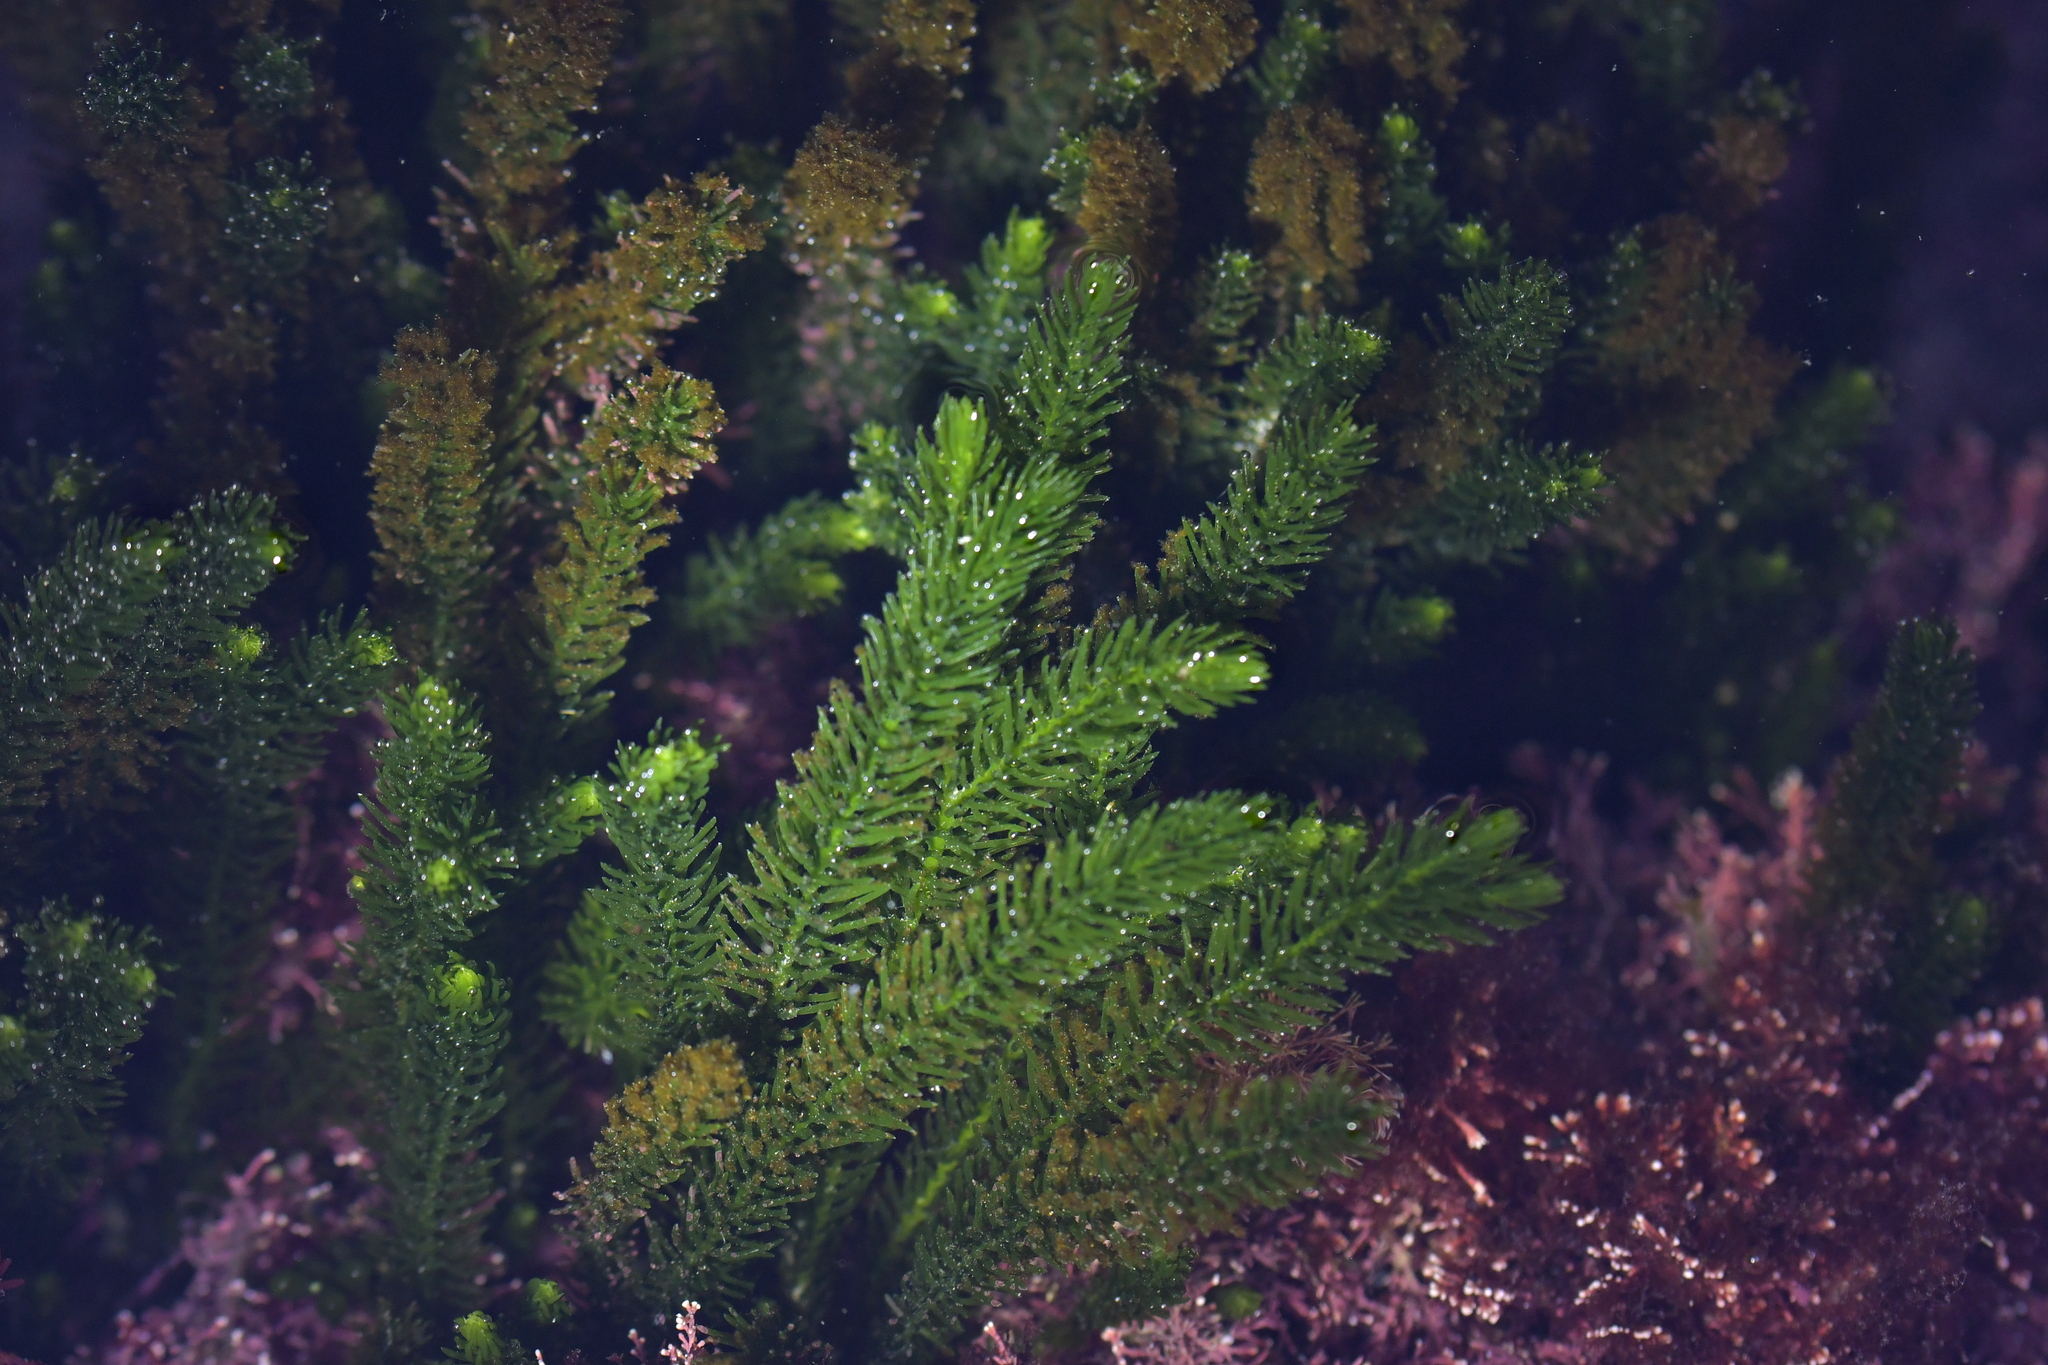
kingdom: Plantae
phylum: Chlorophyta
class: Ulvophyceae
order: Bryopsidales
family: Caulerpaceae
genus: Caulerpa
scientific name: Caulerpa brownii
